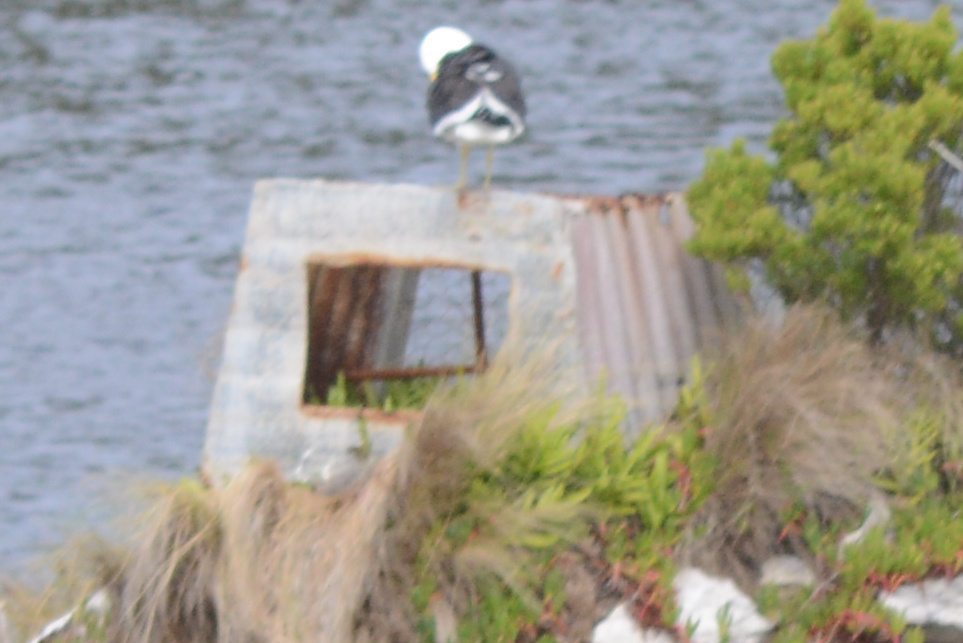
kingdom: Animalia
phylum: Chordata
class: Aves
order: Charadriiformes
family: Laridae
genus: Larus
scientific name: Larus dominicanus
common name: Kelp gull
